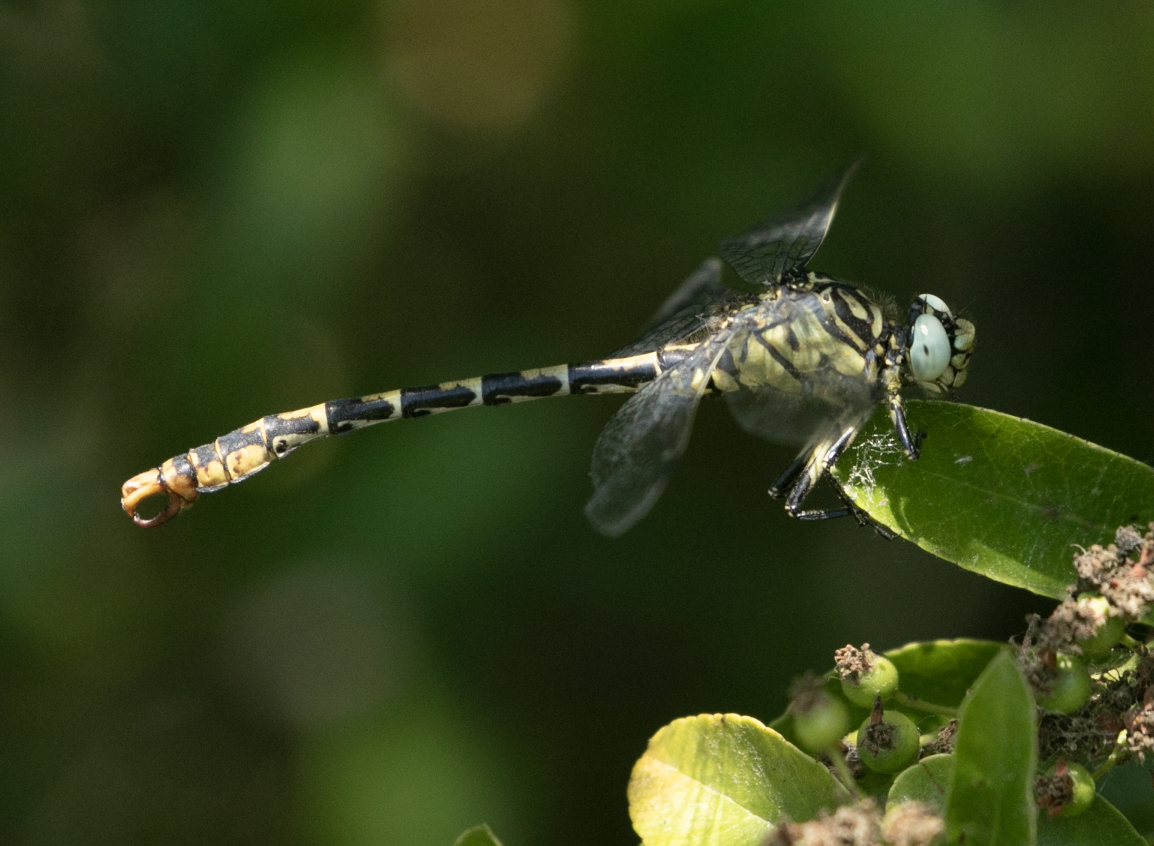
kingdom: Animalia
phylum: Arthropoda
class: Insecta
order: Odonata
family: Gomphidae
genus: Onychogomphus
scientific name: Onychogomphus forcipatus
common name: Small pincertail
